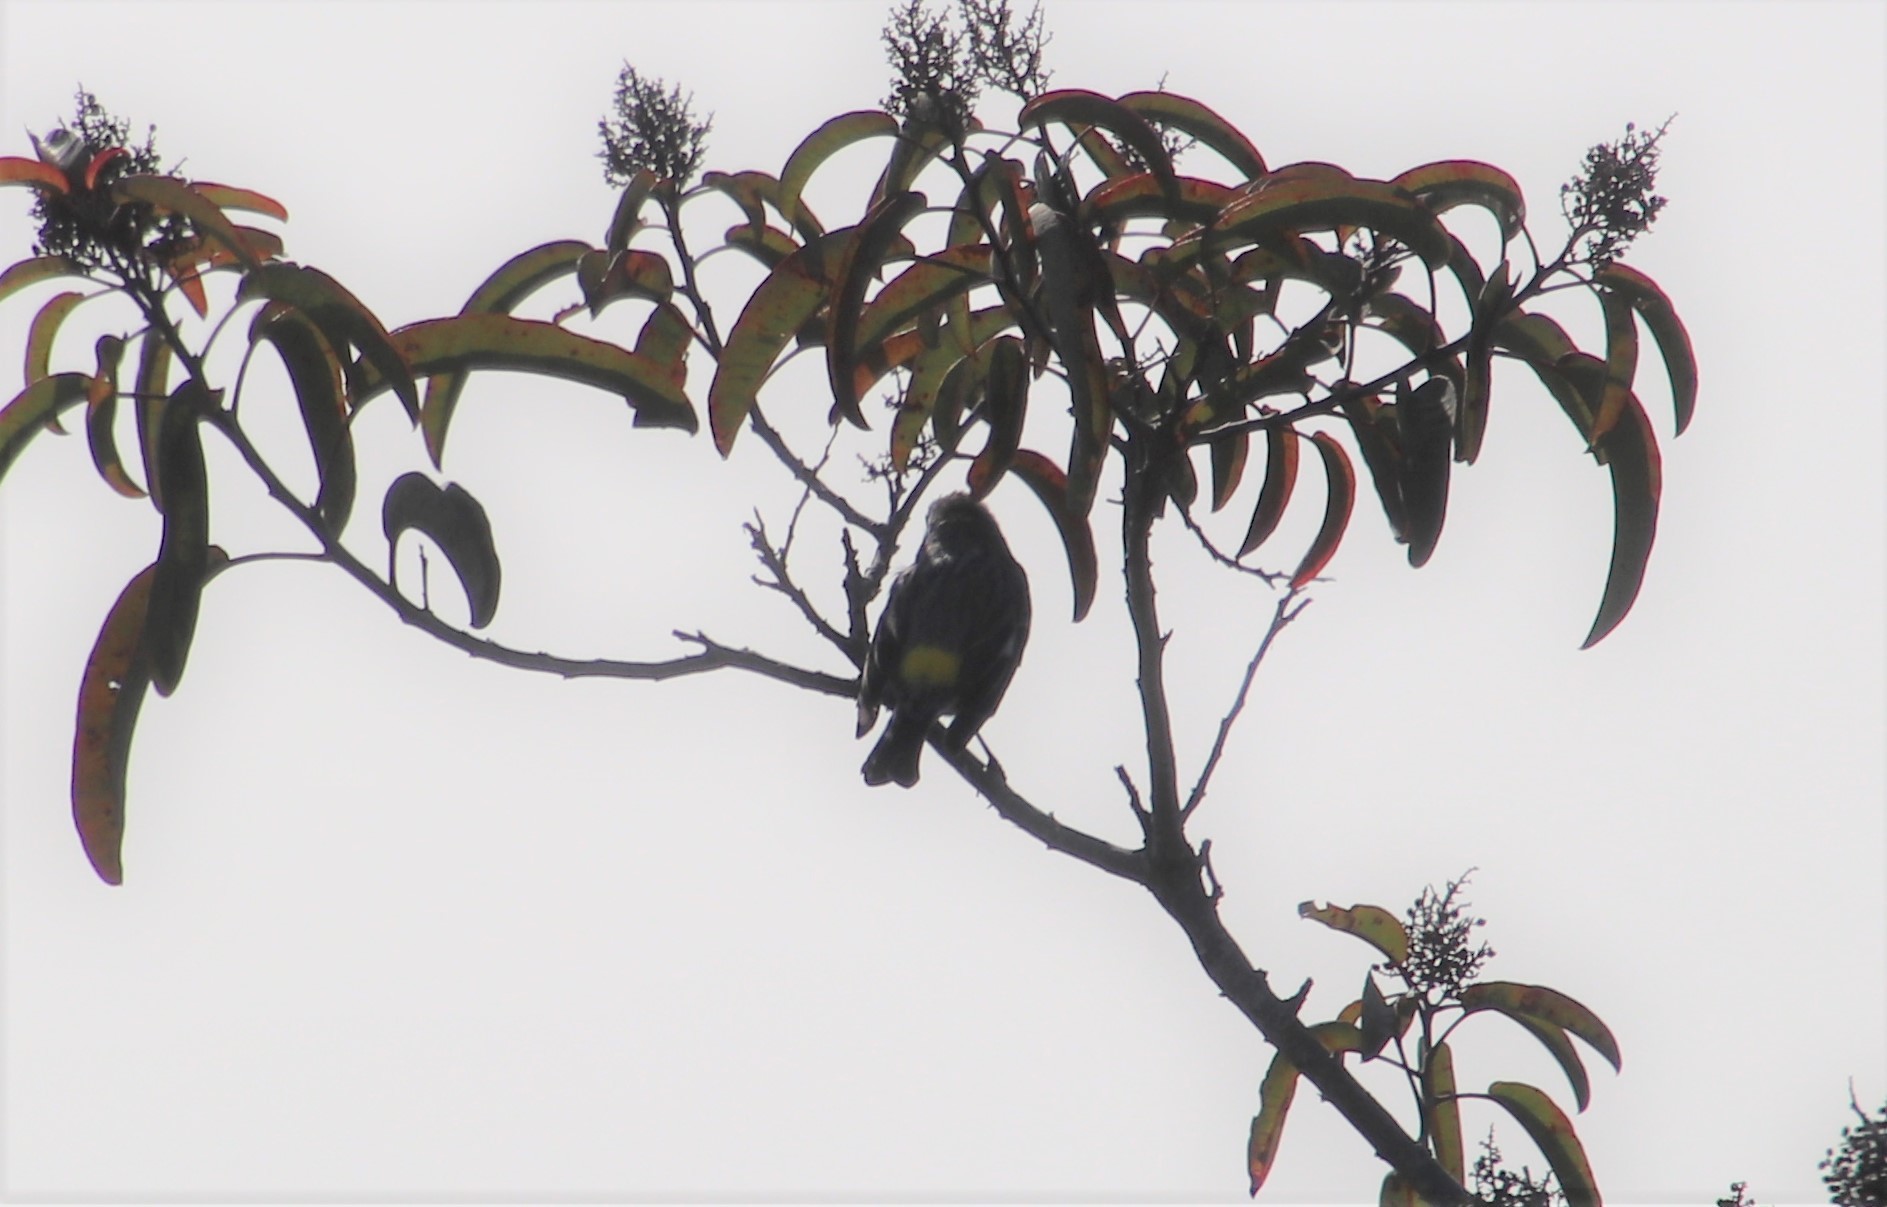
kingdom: Animalia
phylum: Chordata
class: Aves
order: Passeriformes
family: Parulidae
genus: Setophaga
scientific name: Setophaga coronata
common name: Myrtle warbler
